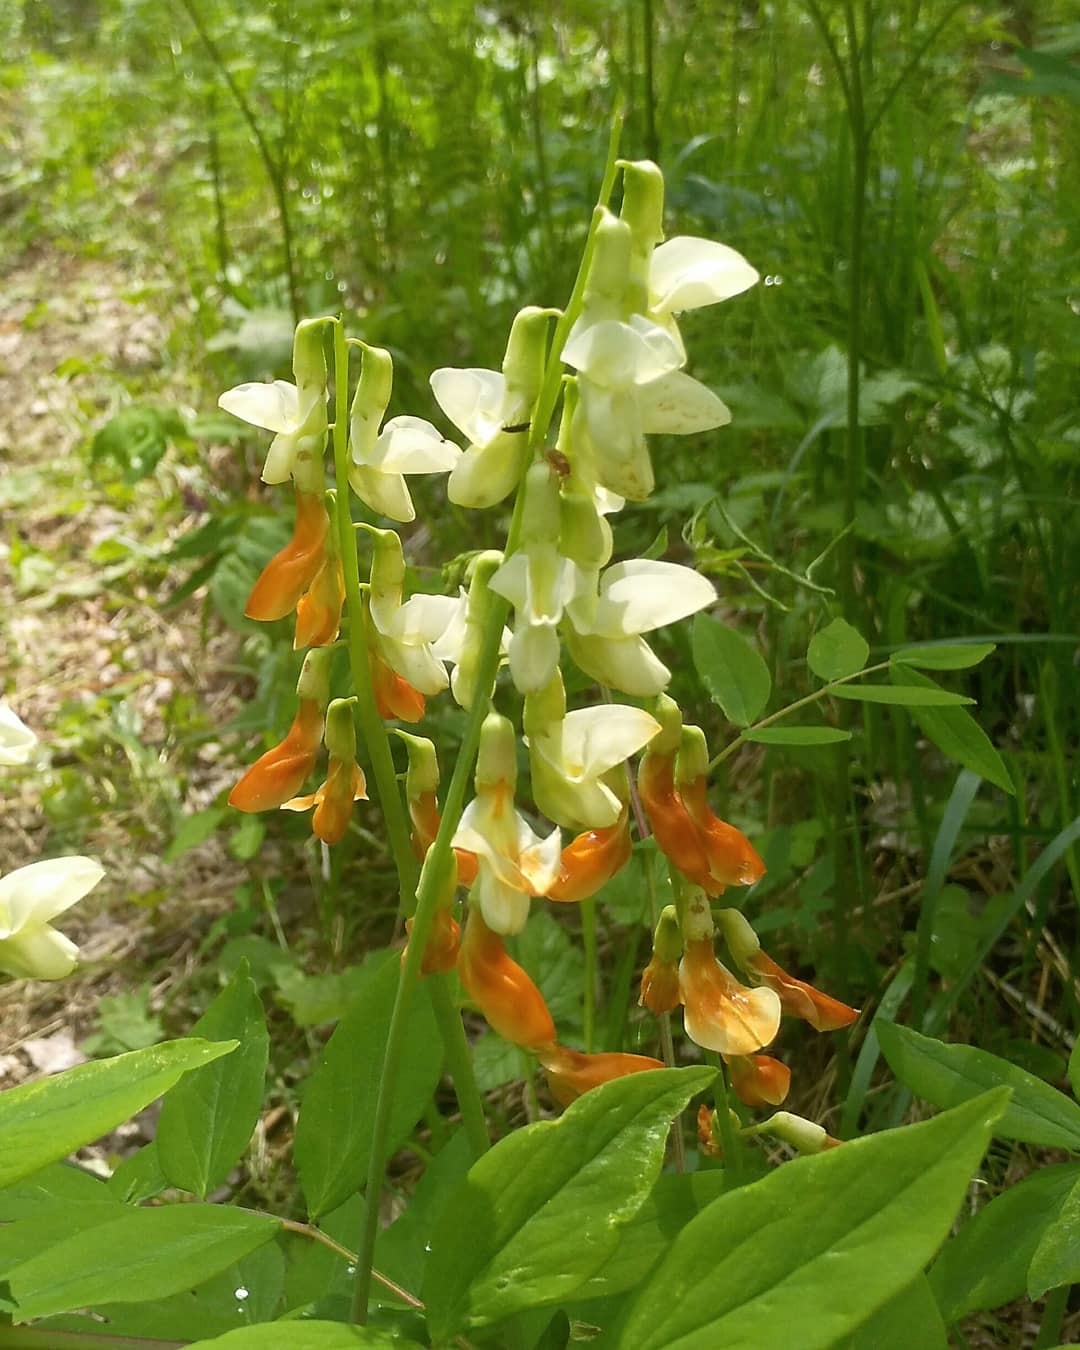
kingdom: Plantae
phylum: Tracheophyta
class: Magnoliopsida
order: Fabales
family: Fabaceae
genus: Lathyrus
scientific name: Lathyrus gmelinii
